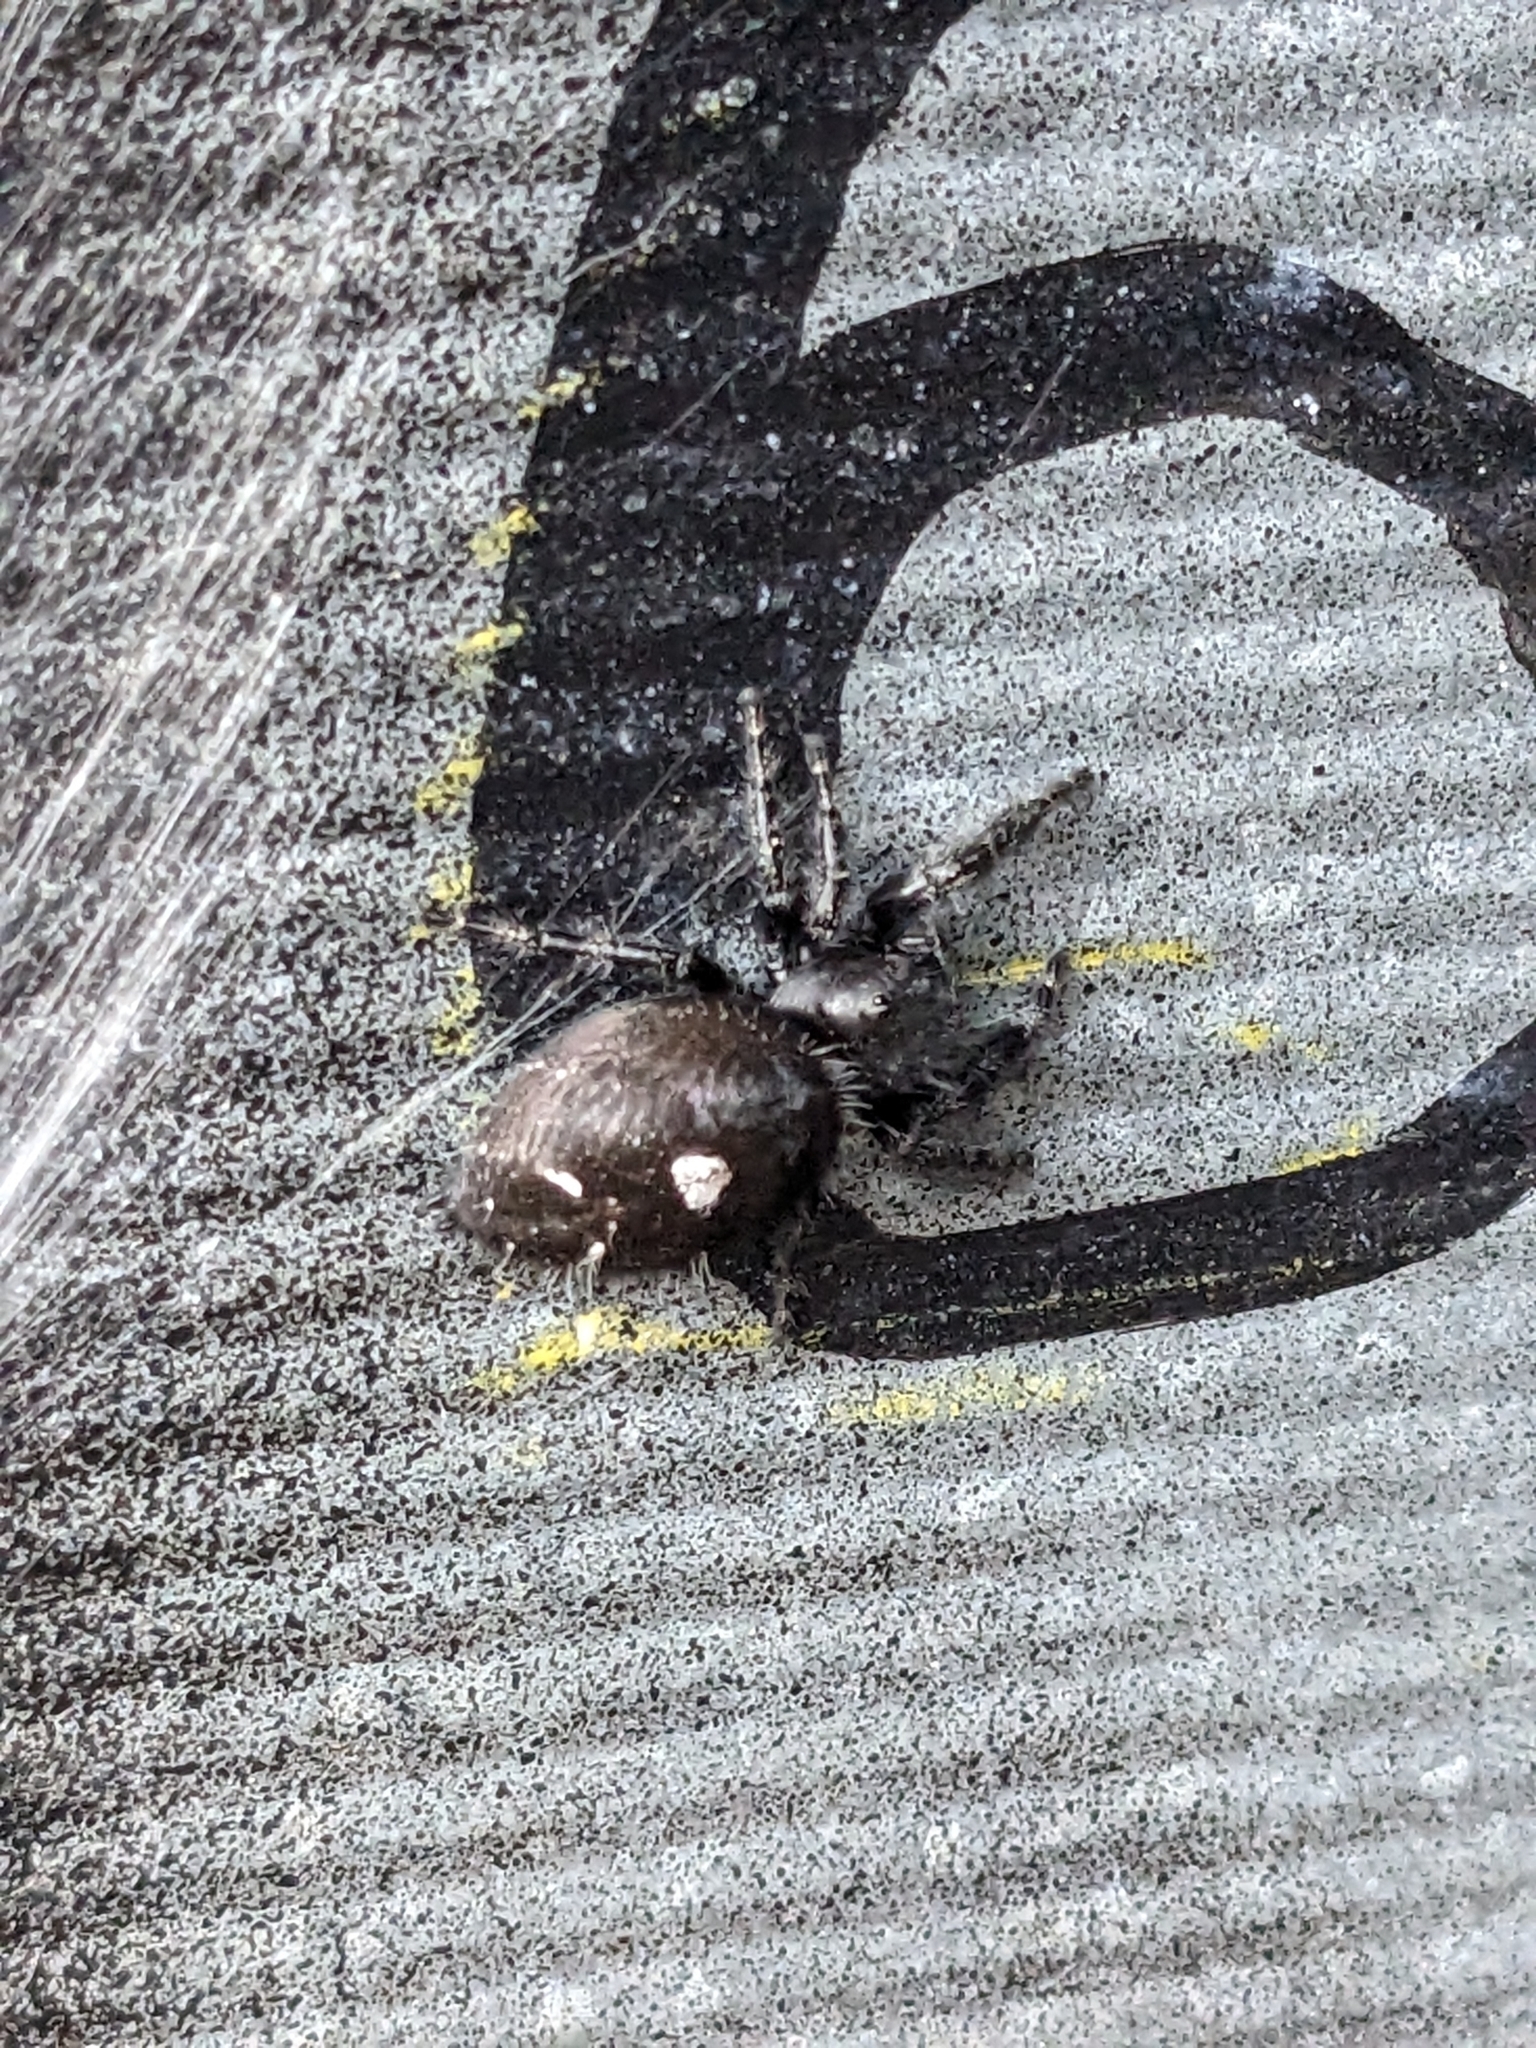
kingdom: Animalia
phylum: Arthropoda
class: Arachnida
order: Araneae
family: Salticidae
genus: Phidippus
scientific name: Phidippus audax
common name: Bold jumper
